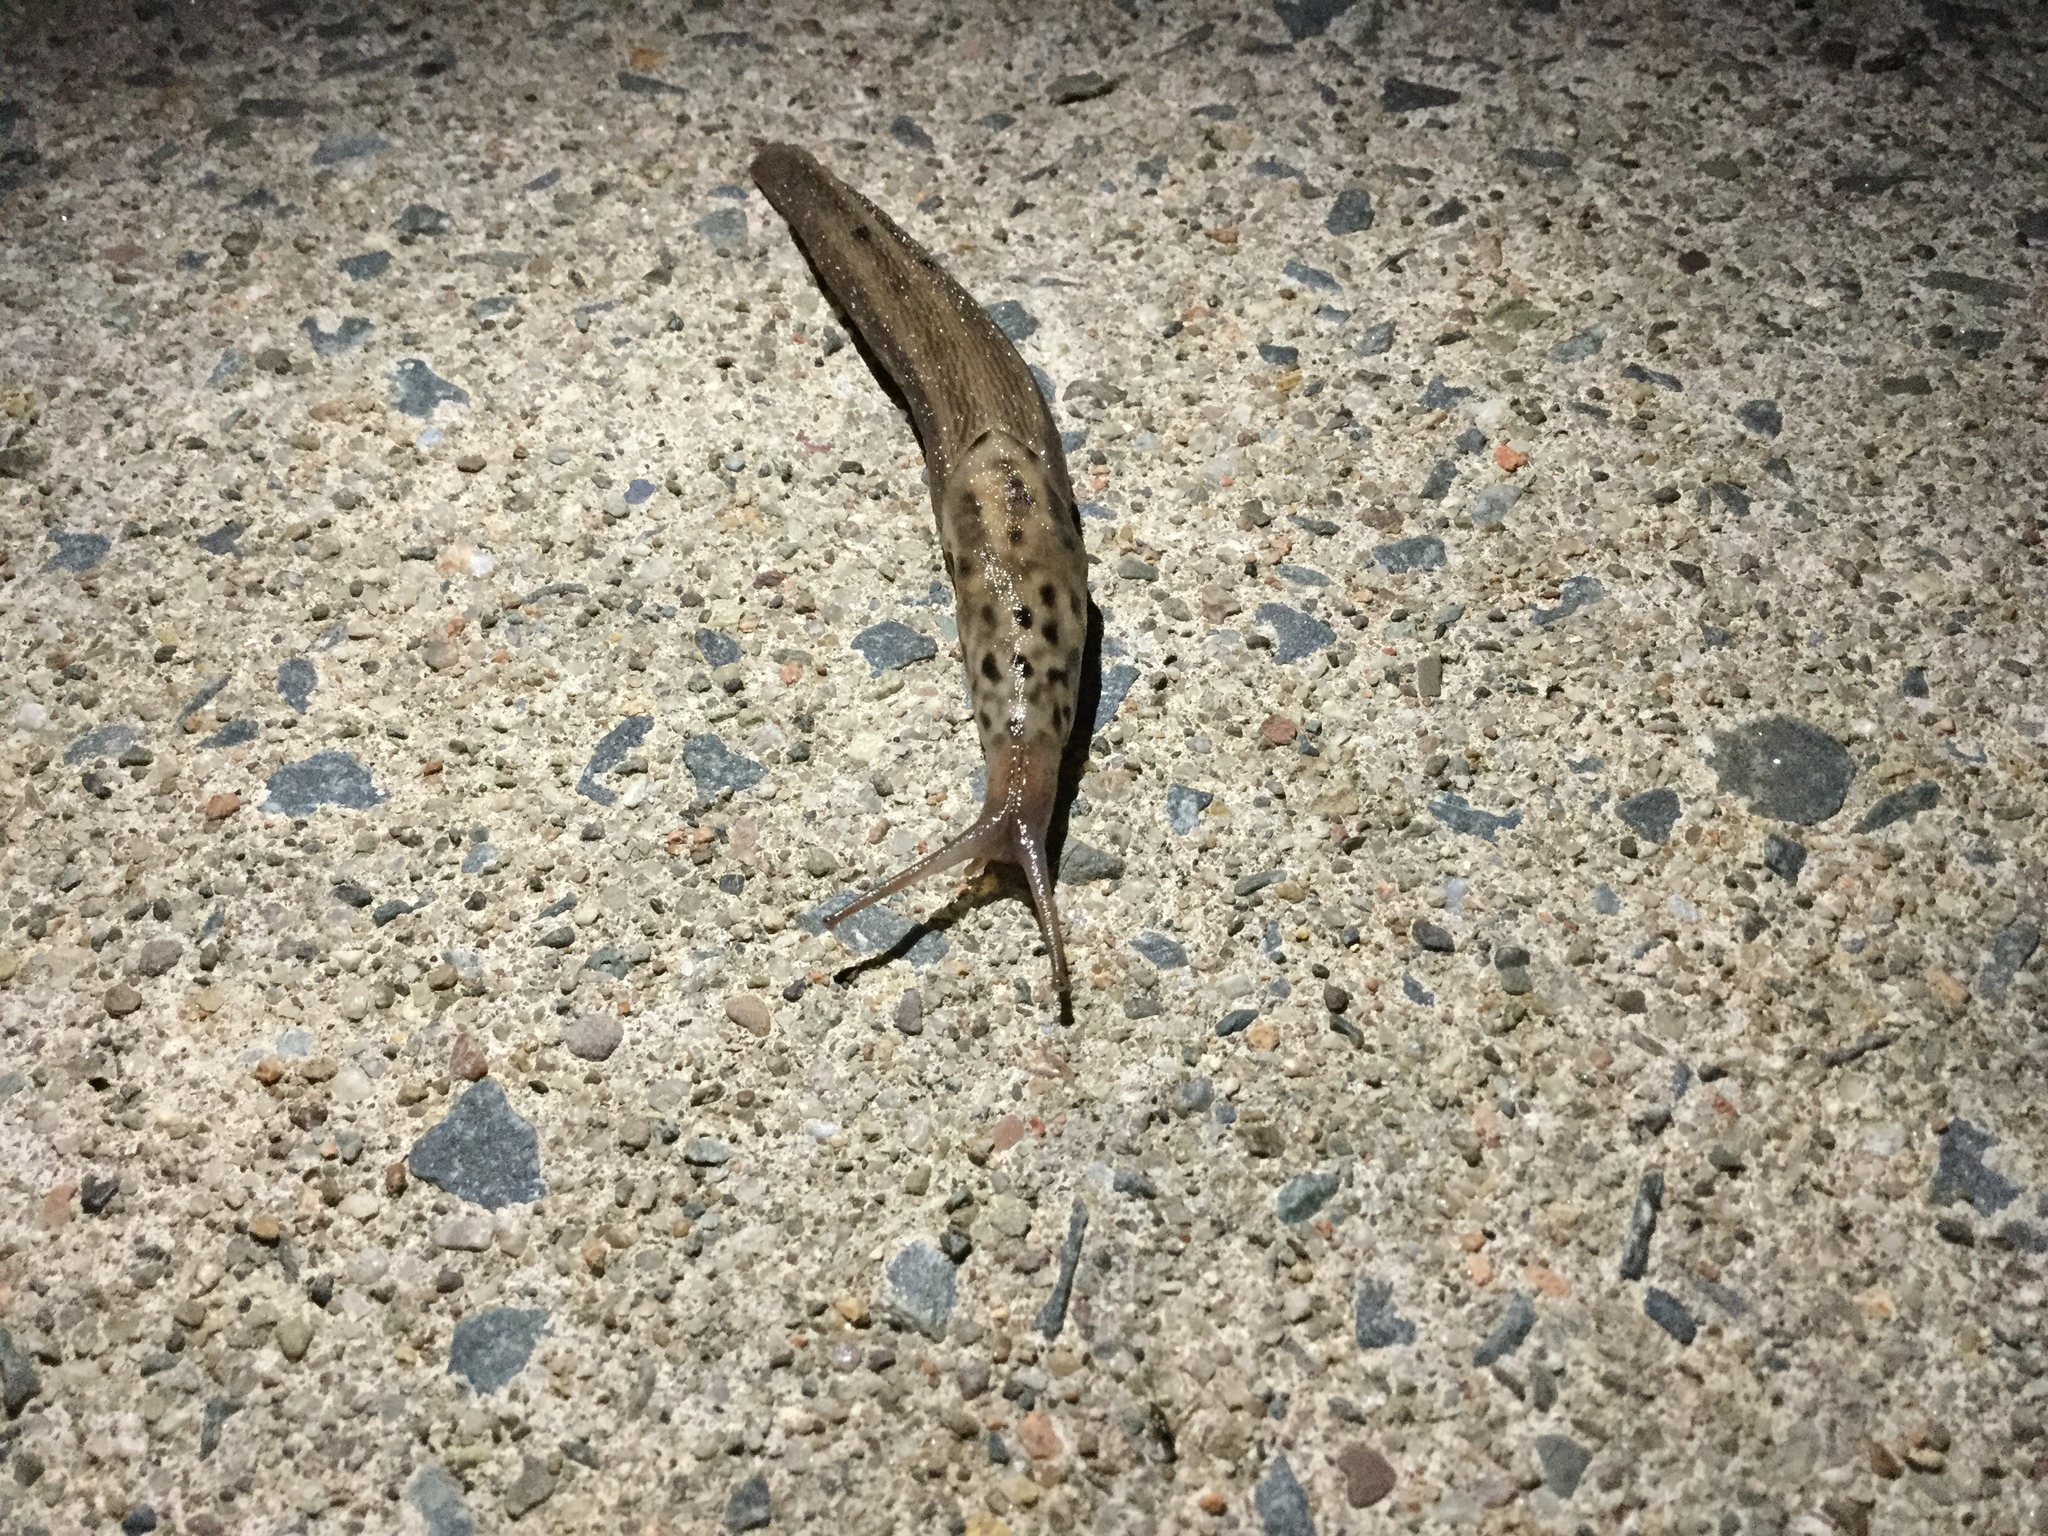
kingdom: Animalia
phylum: Mollusca
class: Gastropoda
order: Stylommatophora
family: Limacidae
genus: Limax
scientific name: Limax maximus
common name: Great grey slug
